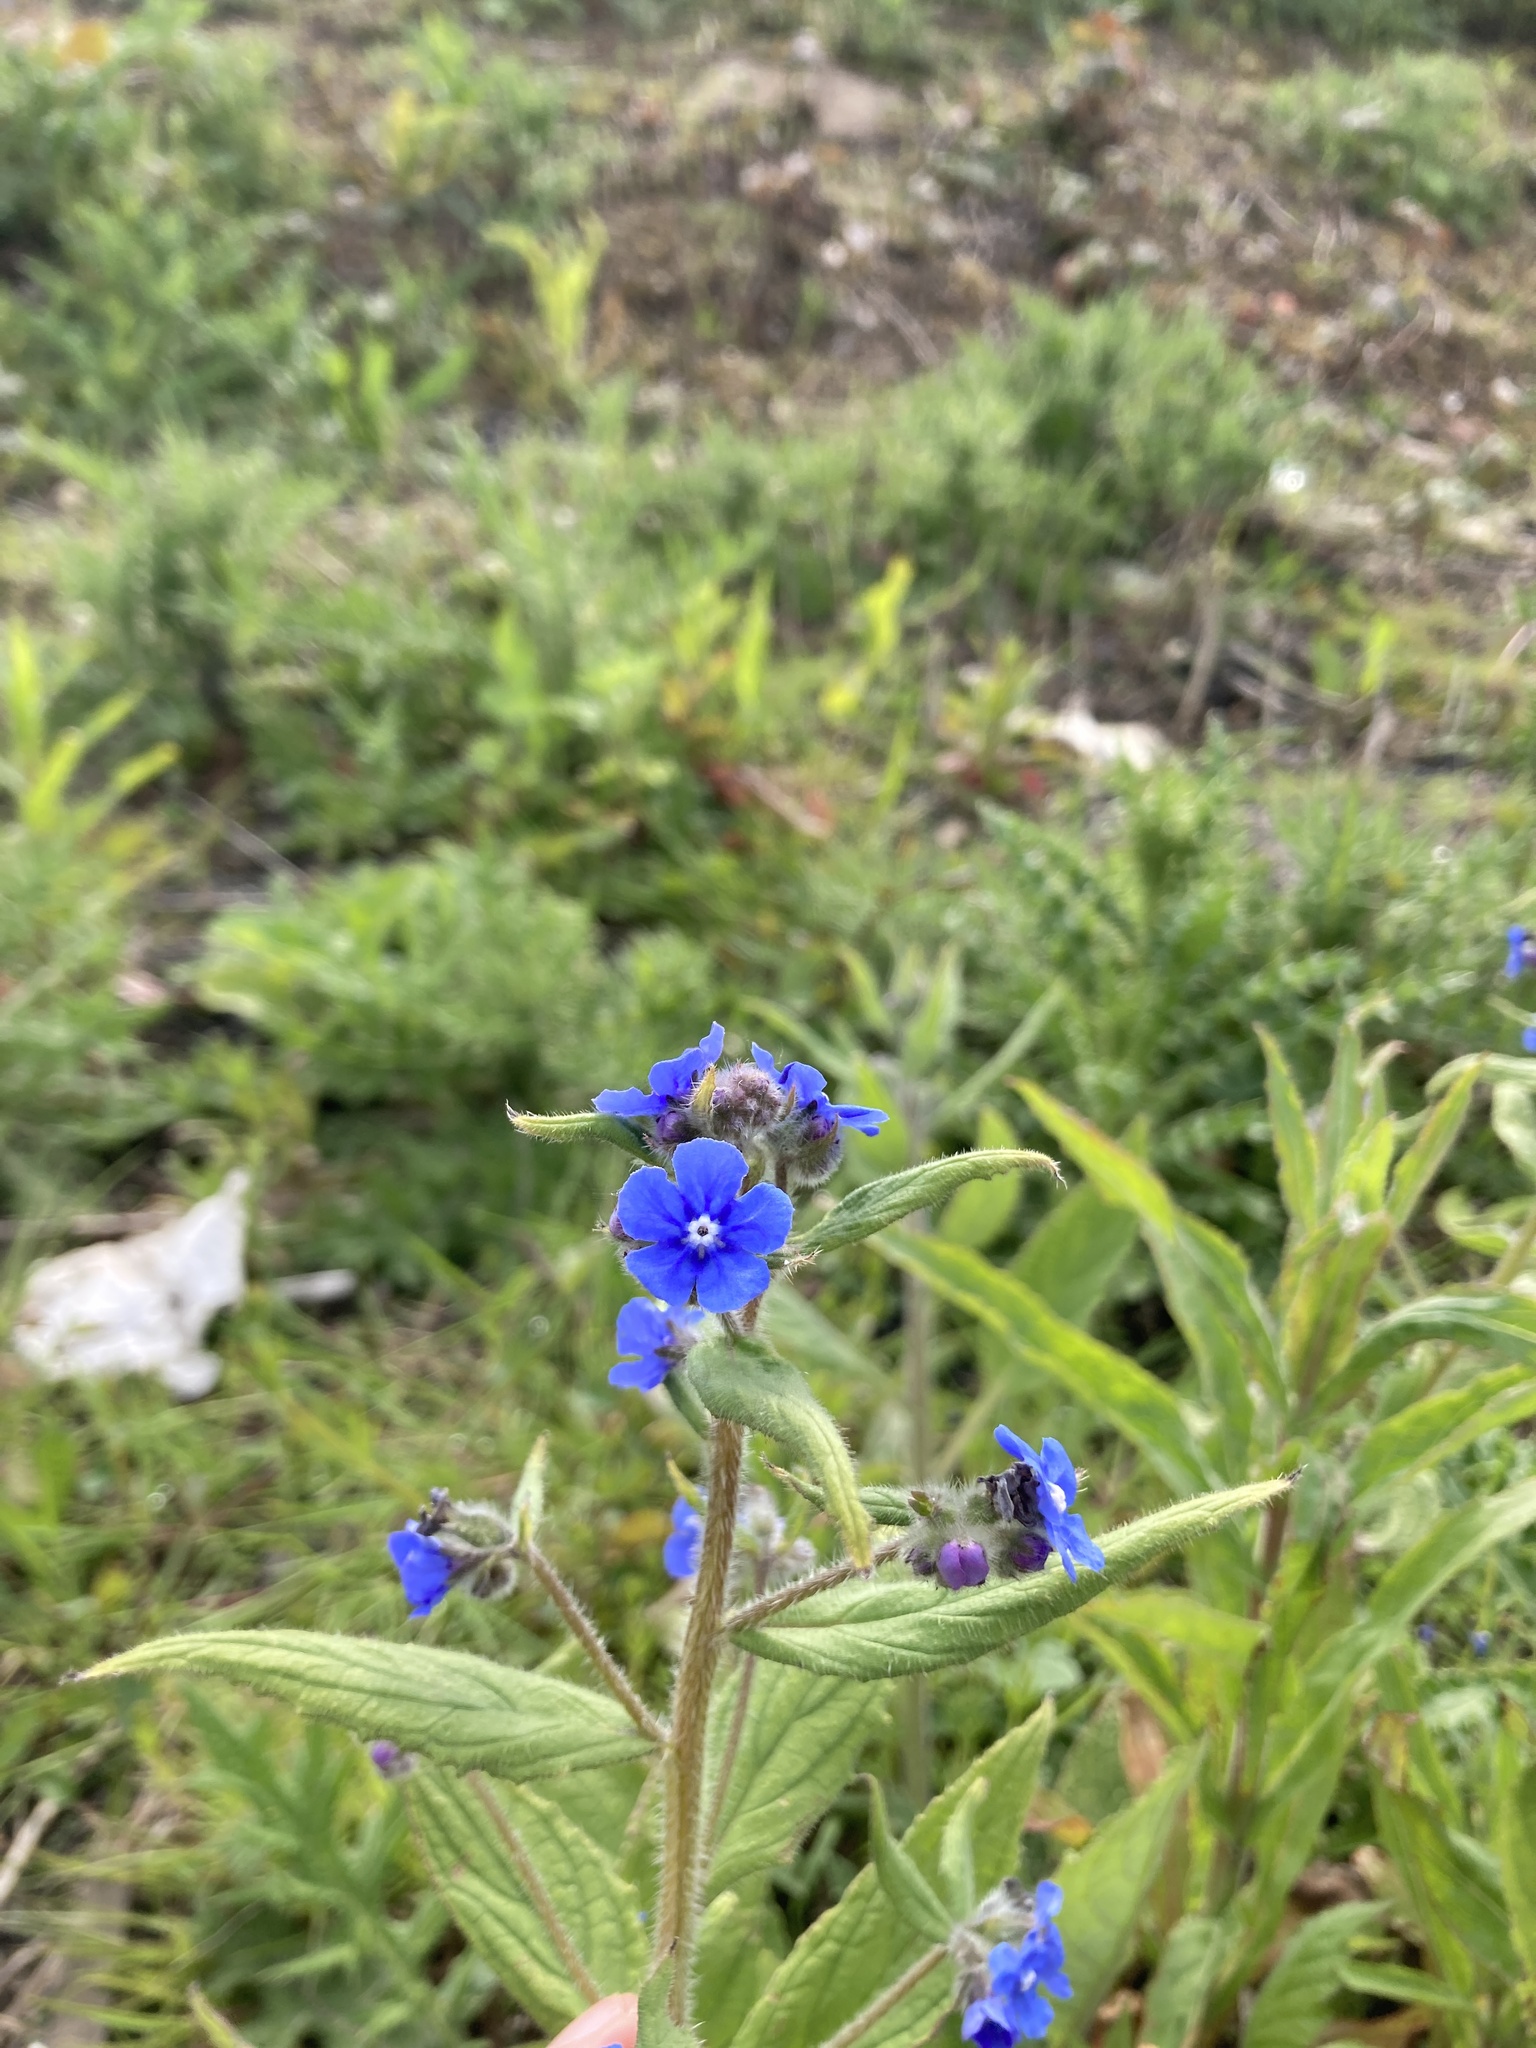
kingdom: Plantae
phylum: Tracheophyta
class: Magnoliopsida
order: Boraginales
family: Boraginaceae
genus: Pentaglottis
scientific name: Pentaglottis sempervirens
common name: Green alkanet
